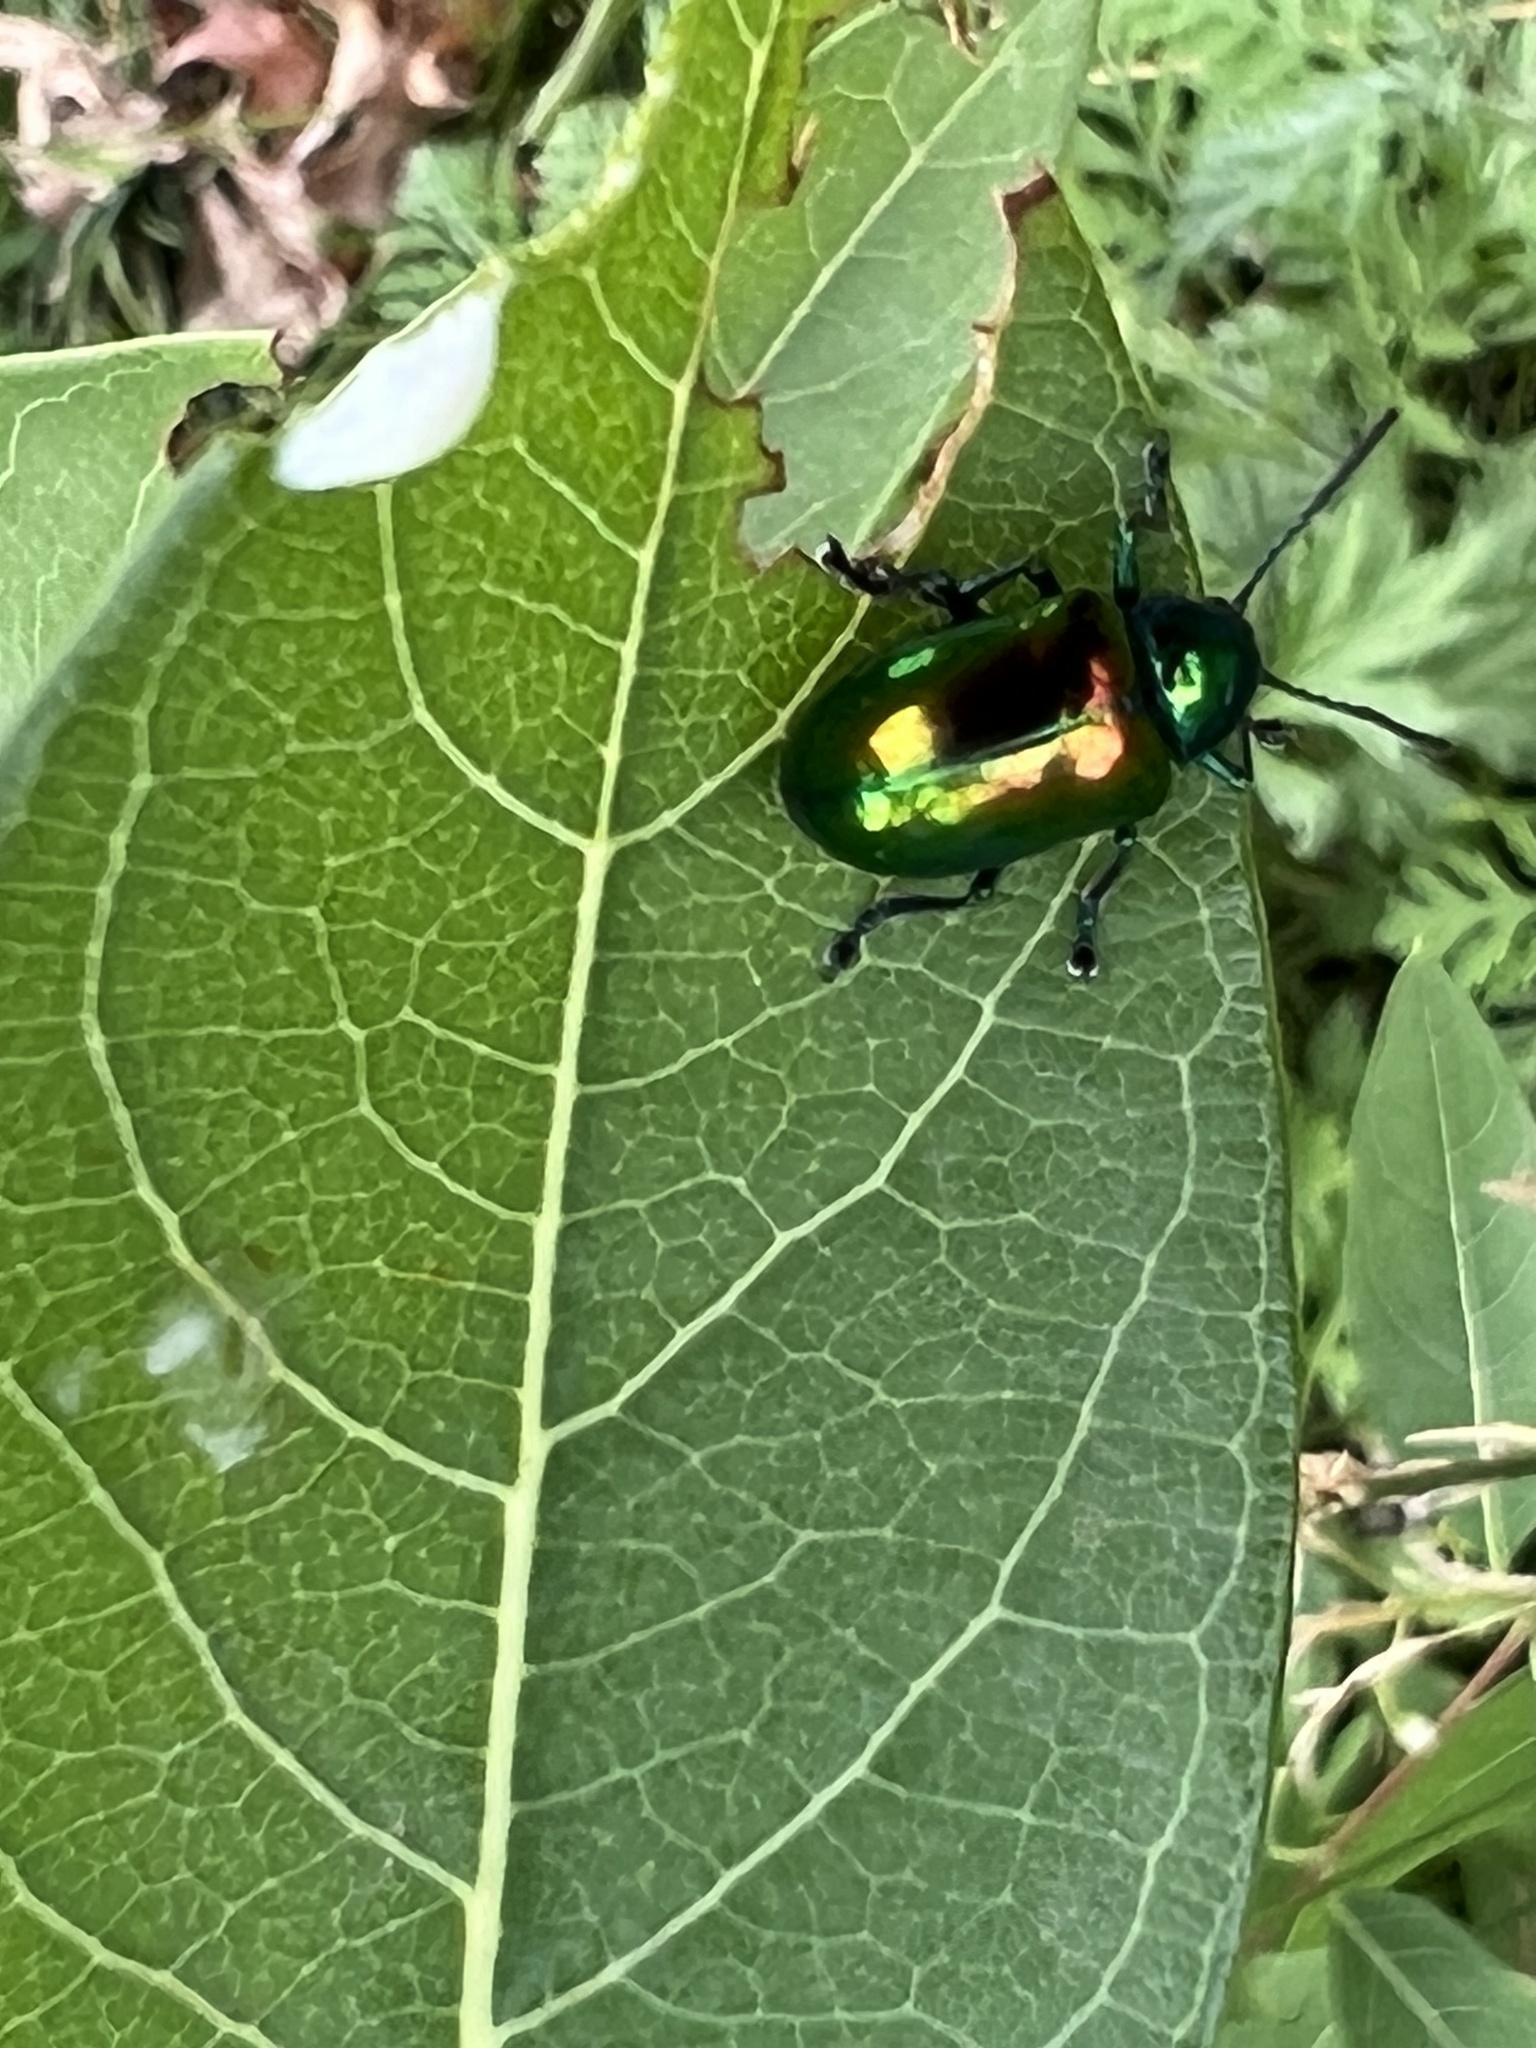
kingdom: Animalia
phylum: Arthropoda
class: Insecta
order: Coleoptera
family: Chrysomelidae
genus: Chrysochus
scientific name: Chrysochus auratus
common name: Dogbane leaf beetle
